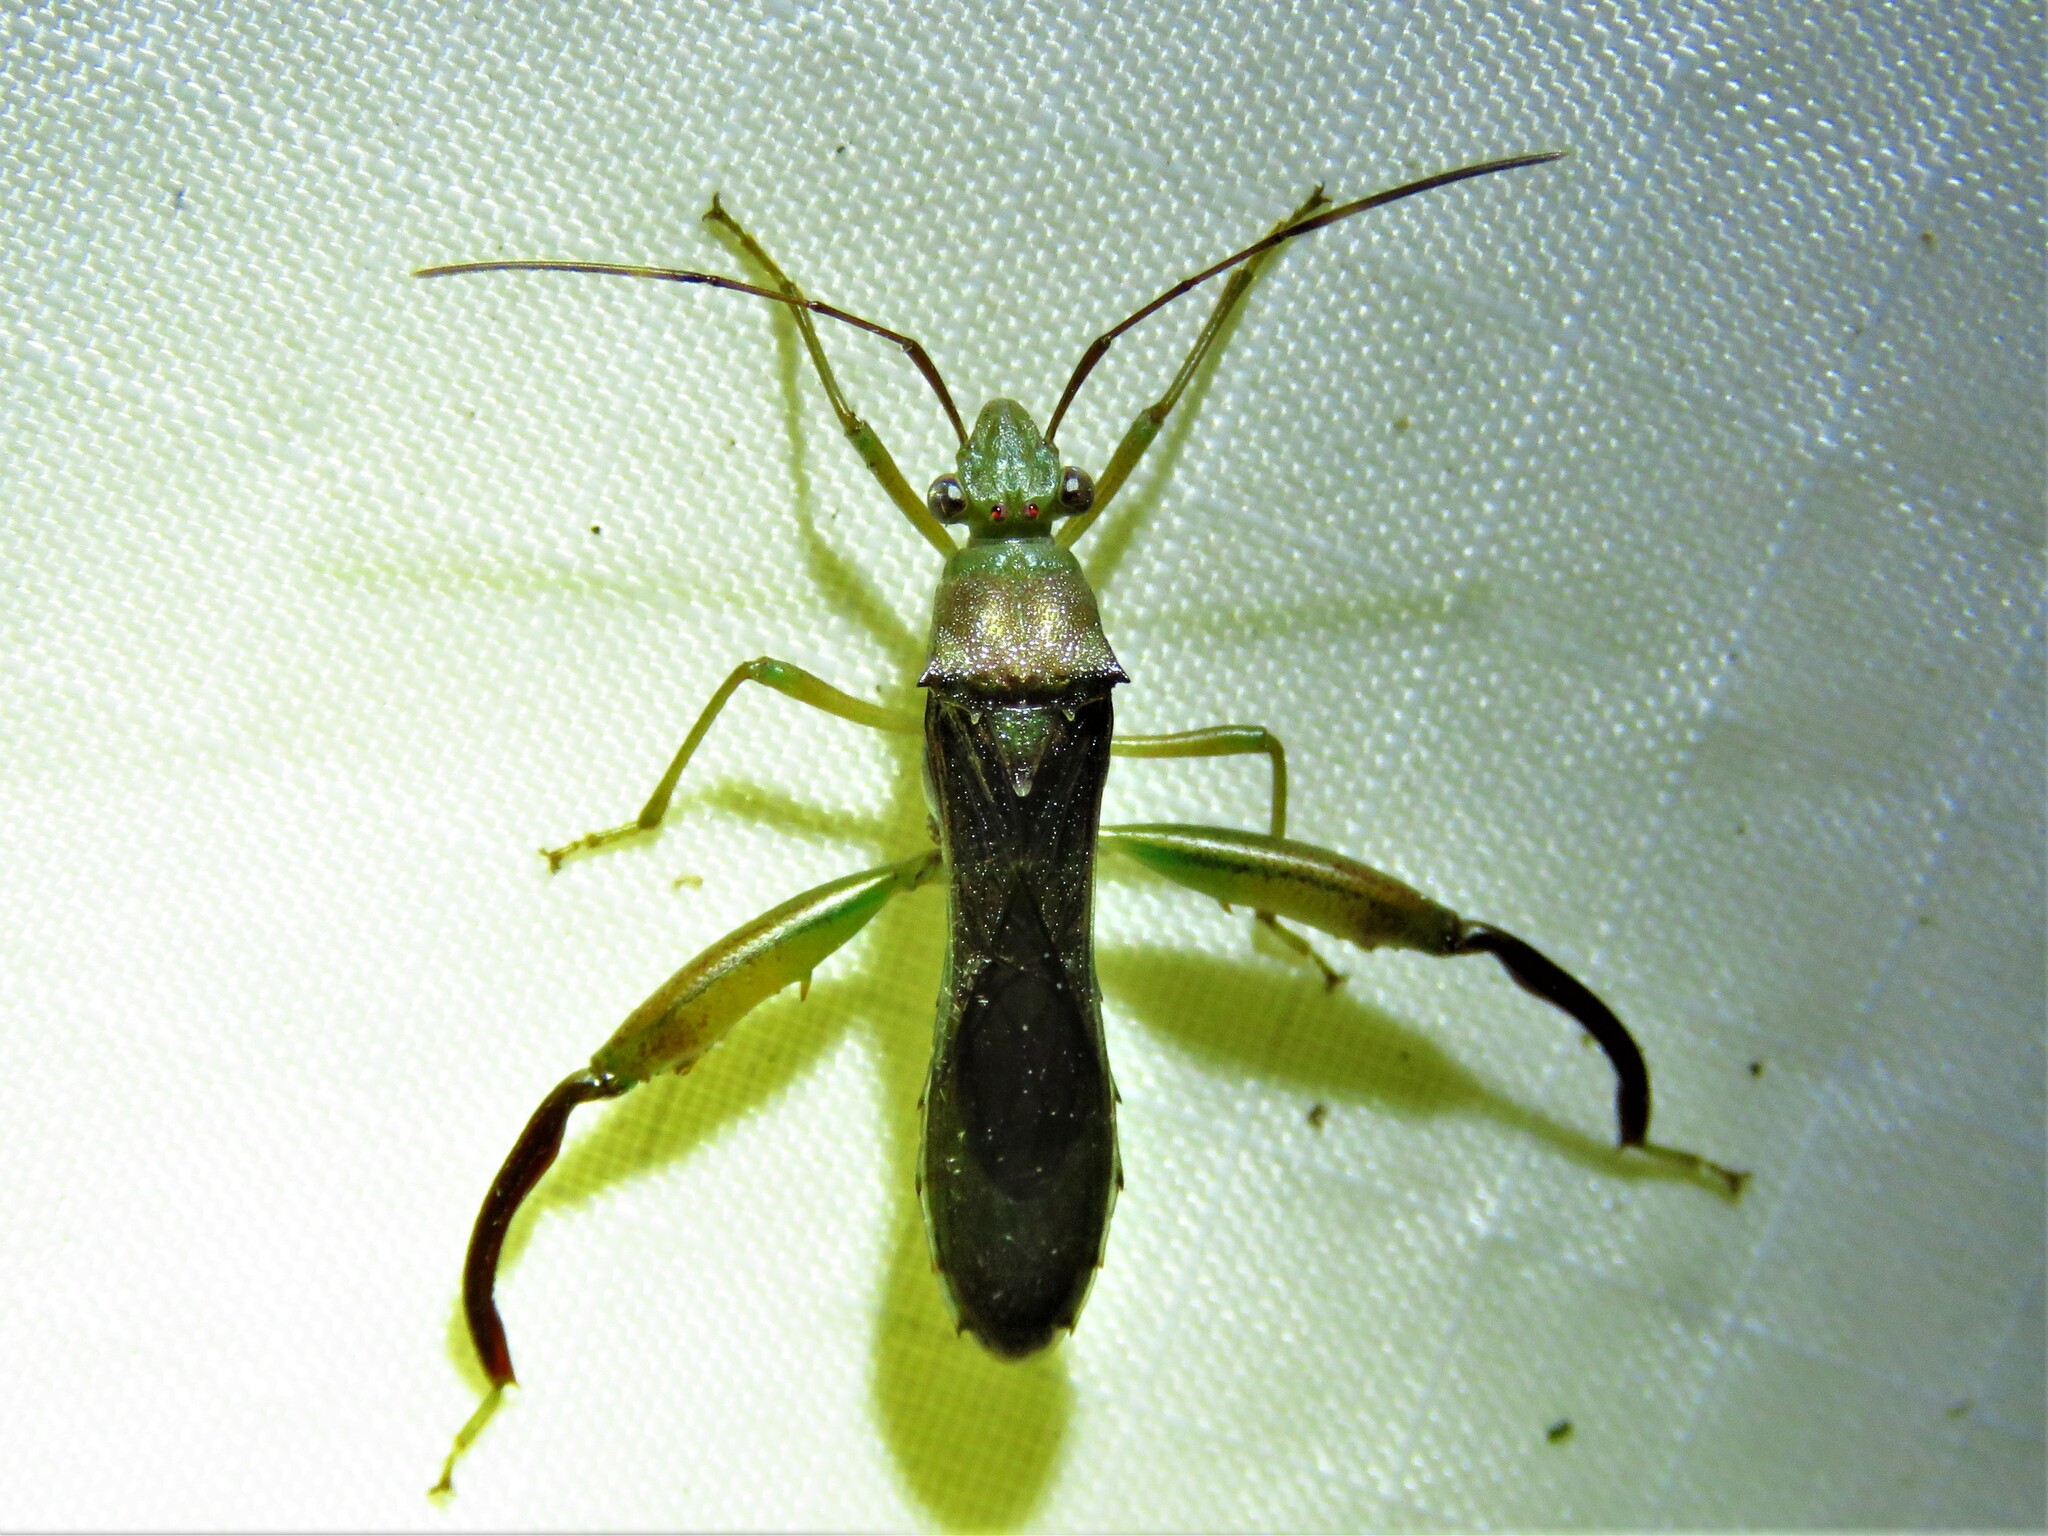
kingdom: Animalia
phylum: Arthropoda
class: Insecta
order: Hemiptera
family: Alydidae
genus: Hyalymenus
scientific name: Hyalymenus tarsatus
